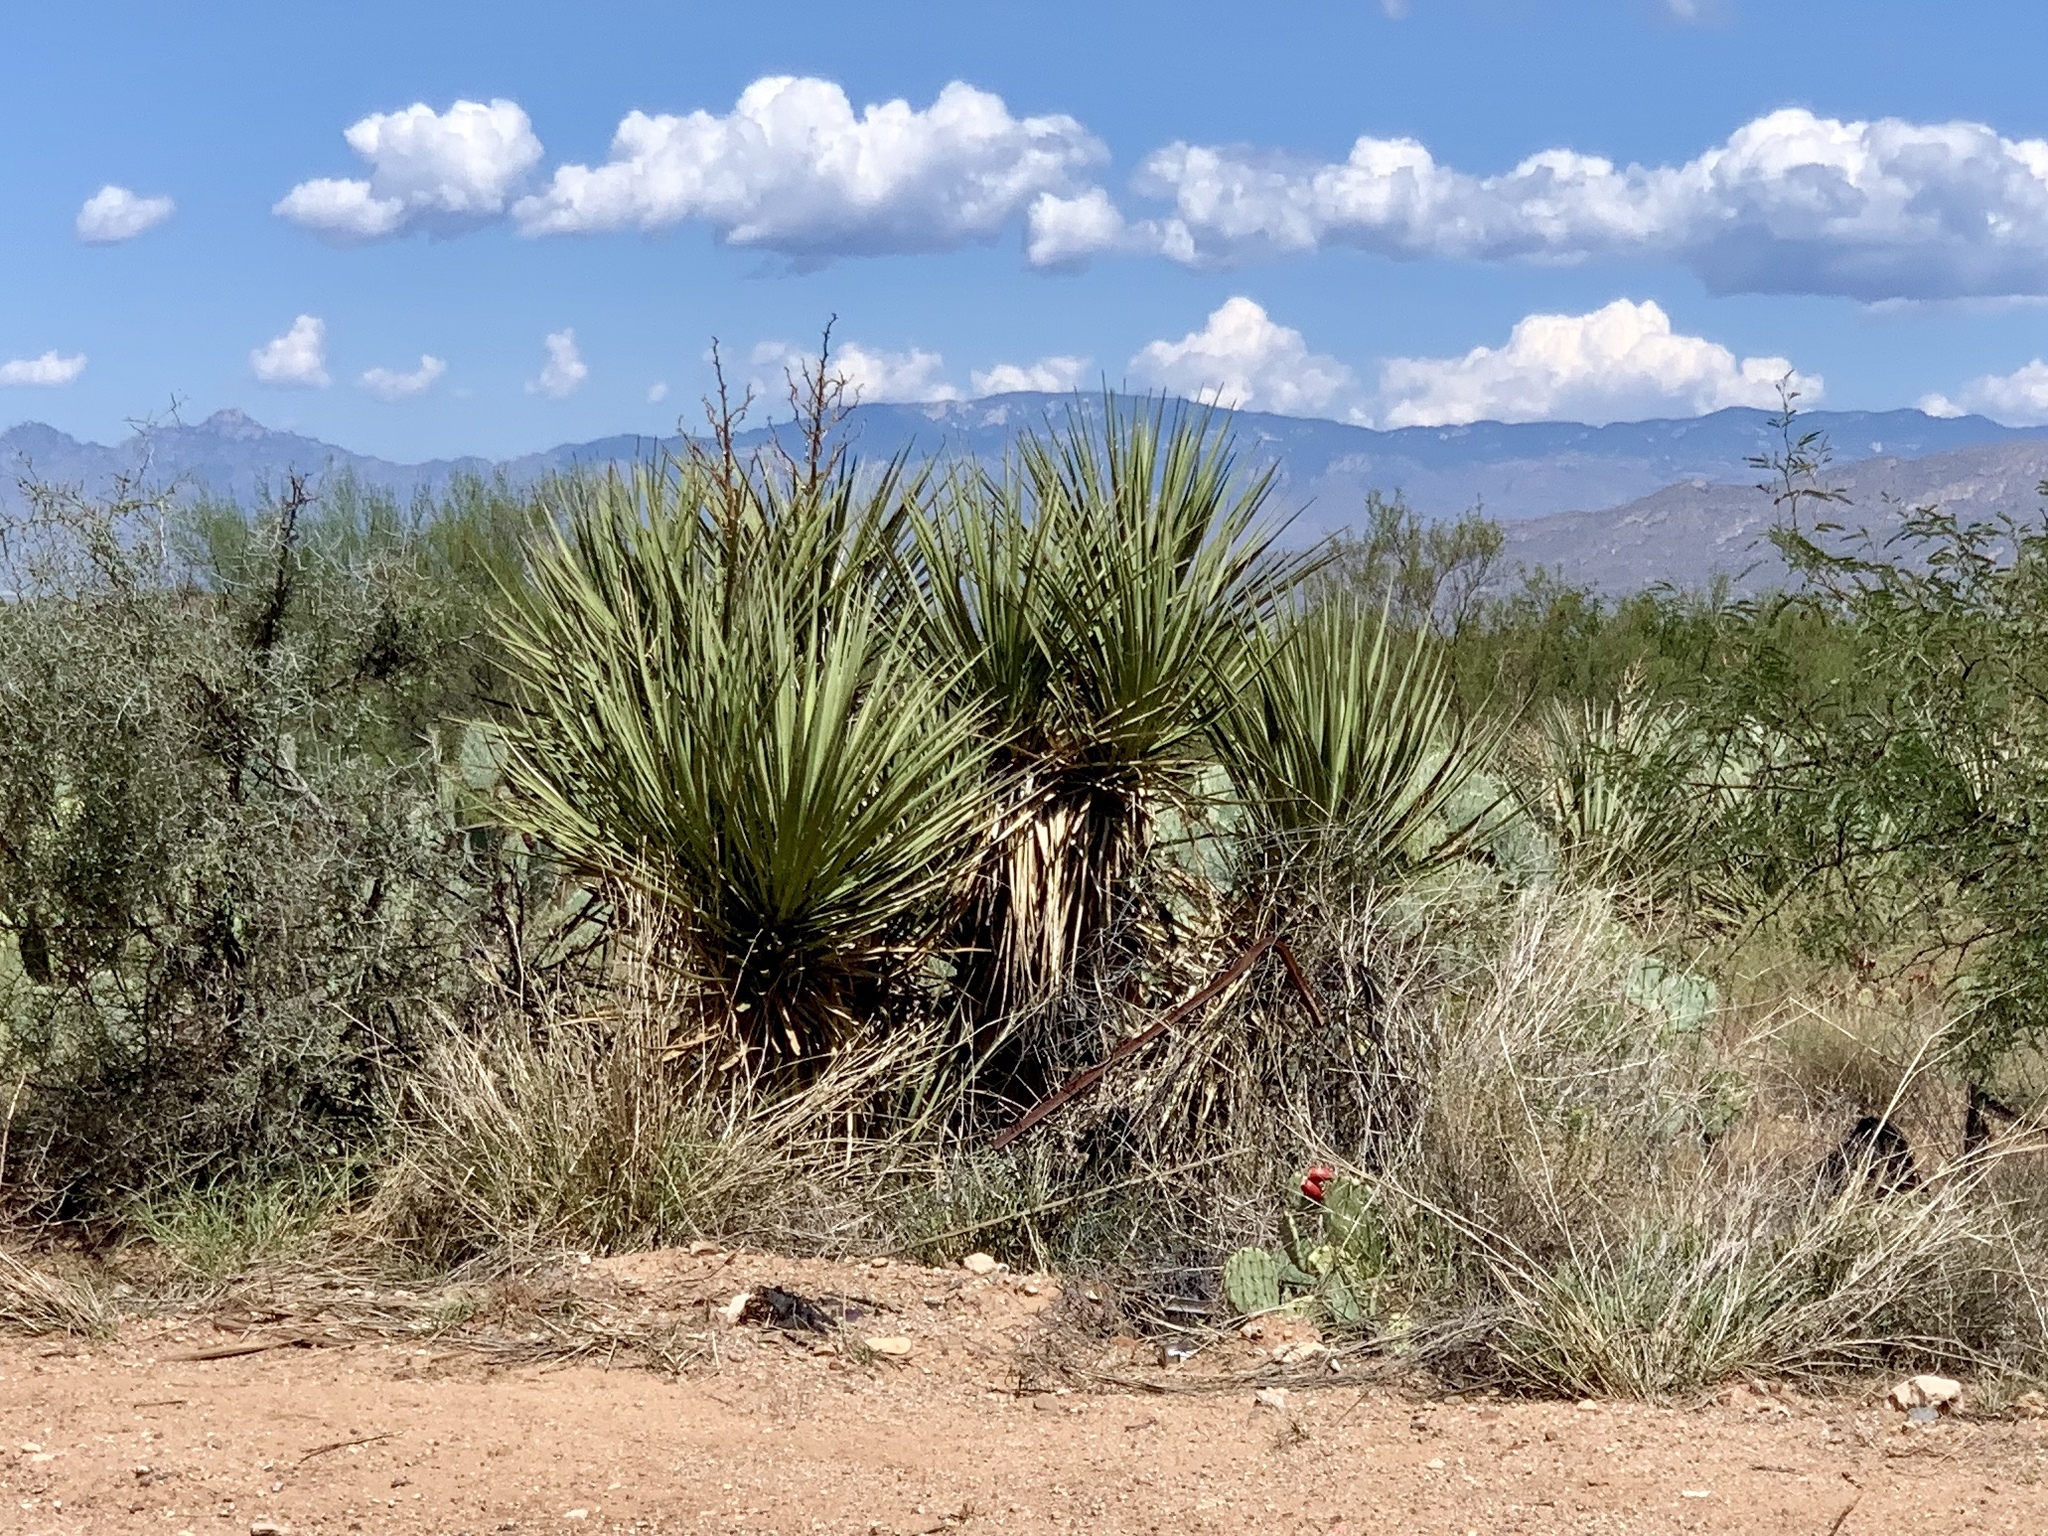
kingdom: Plantae
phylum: Tracheophyta
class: Liliopsida
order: Asparagales
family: Asparagaceae
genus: Yucca
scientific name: Yucca baccata
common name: Banana yucca
